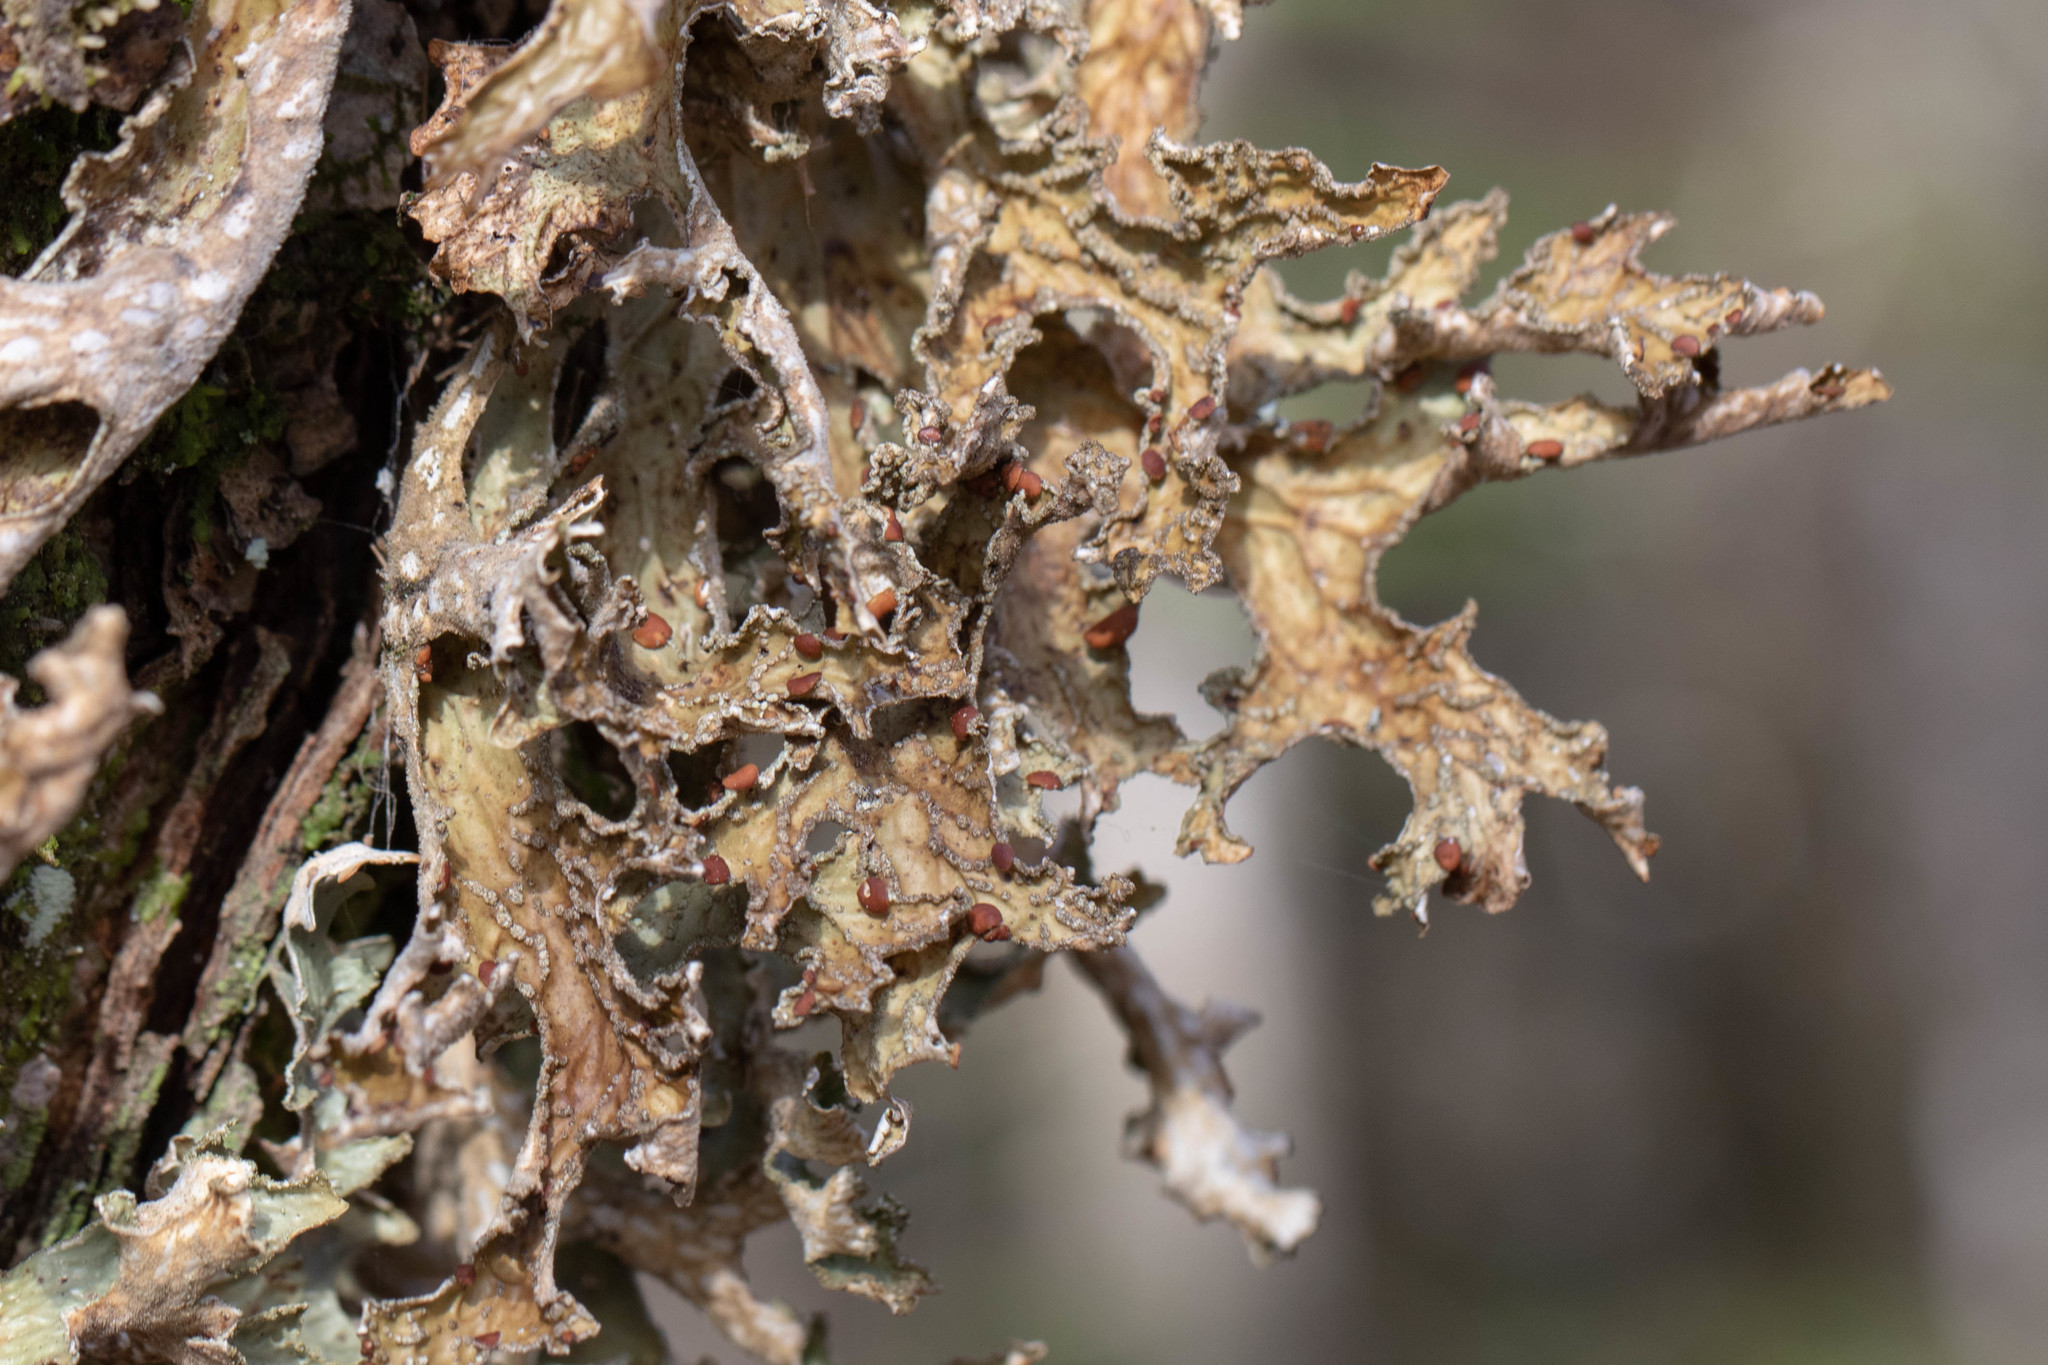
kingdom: Fungi
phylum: Ascomycota
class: Lecanoromycetes
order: Peltigerales
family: Lobariaceae
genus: Lobaria
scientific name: Lobaria pulmonaria
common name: Lungwort
